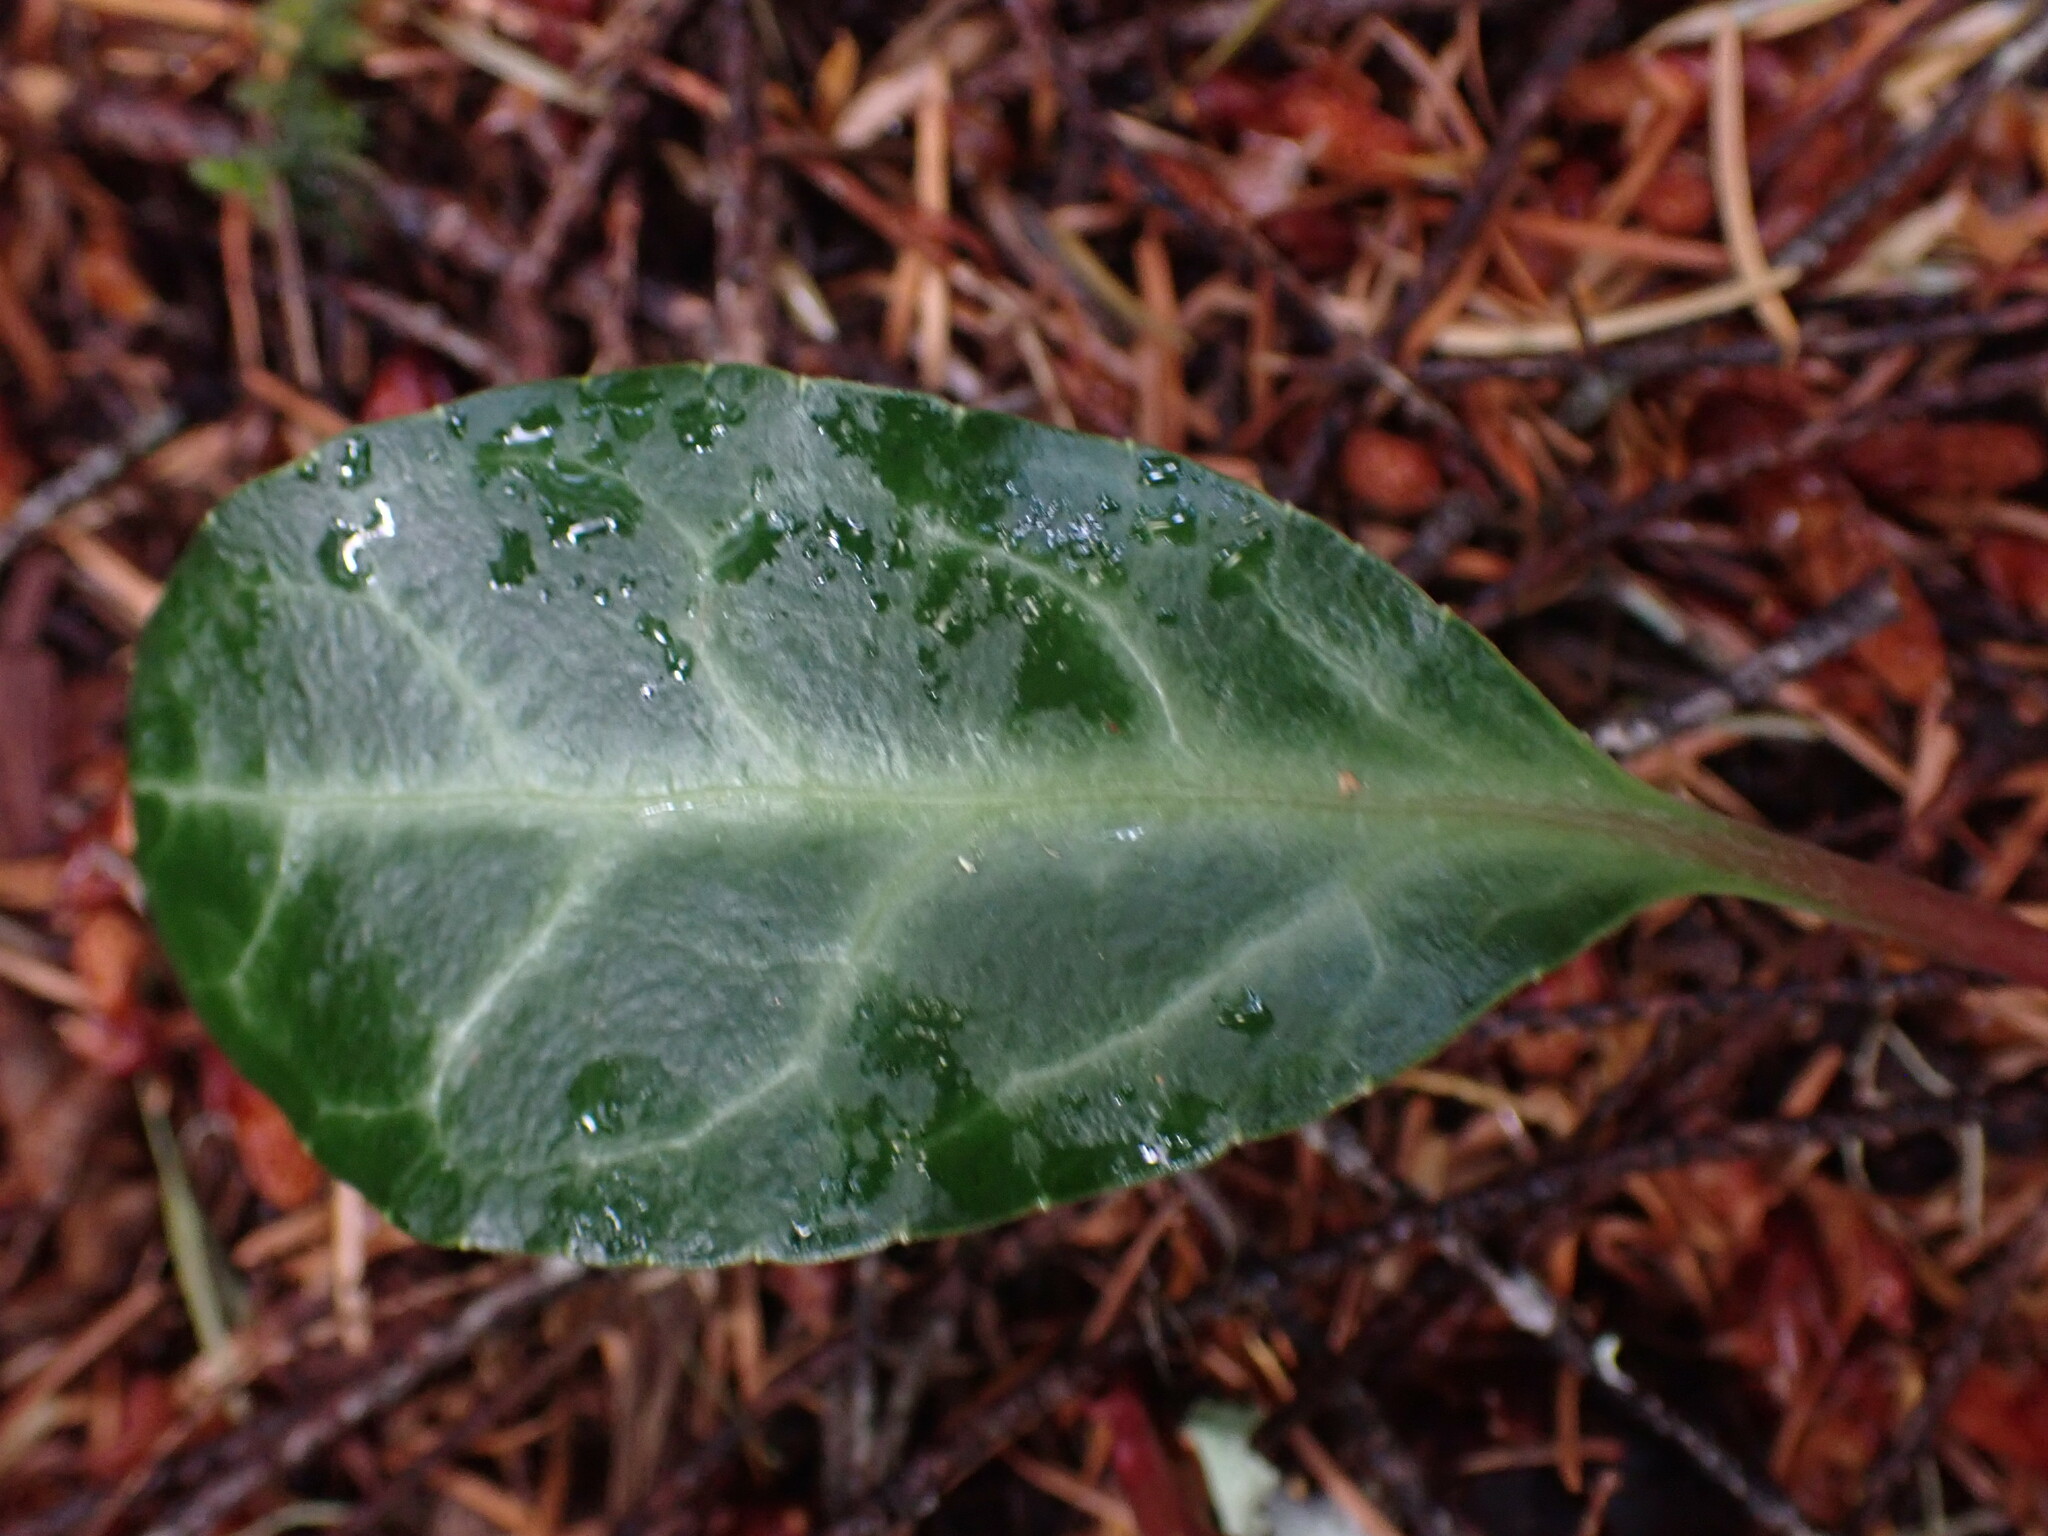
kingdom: Plantae
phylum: Tracheophyta
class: Magnoliopsida
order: Ericales
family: Ericaceae
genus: Pyrola
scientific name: Pyrola picta
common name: White-vein wintergreen
